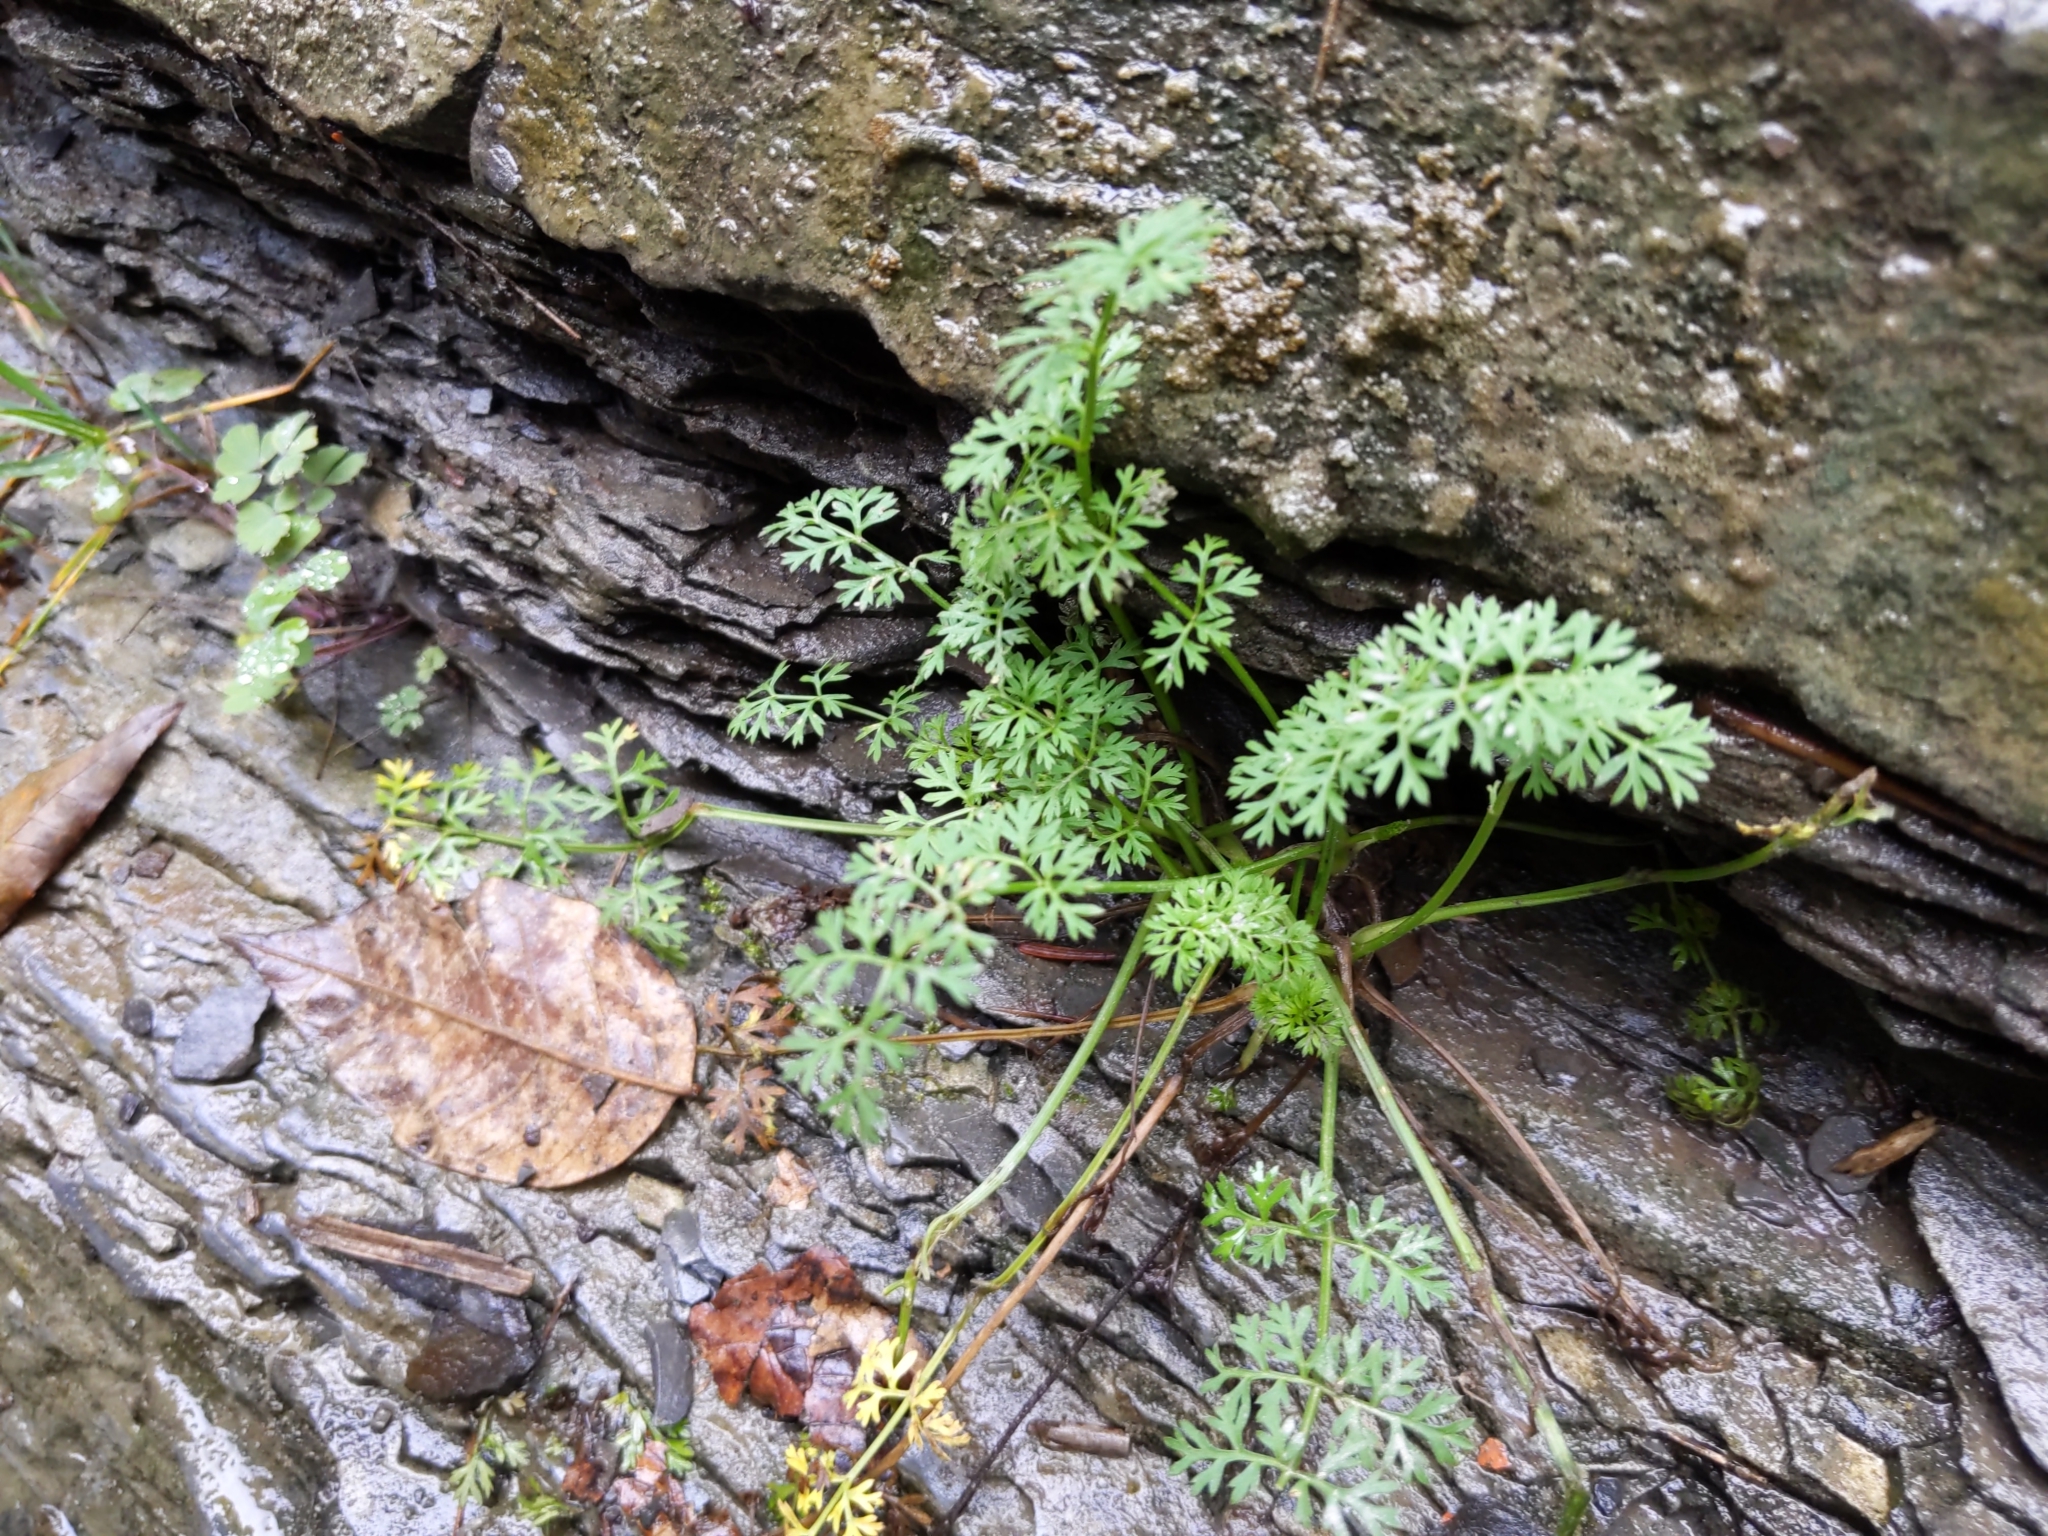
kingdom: Plantae
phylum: Tracheophyta
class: Magnoliopsida
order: Apiales
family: Apiaceae
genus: Daucus
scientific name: Daucus carota
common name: Wild carrot
